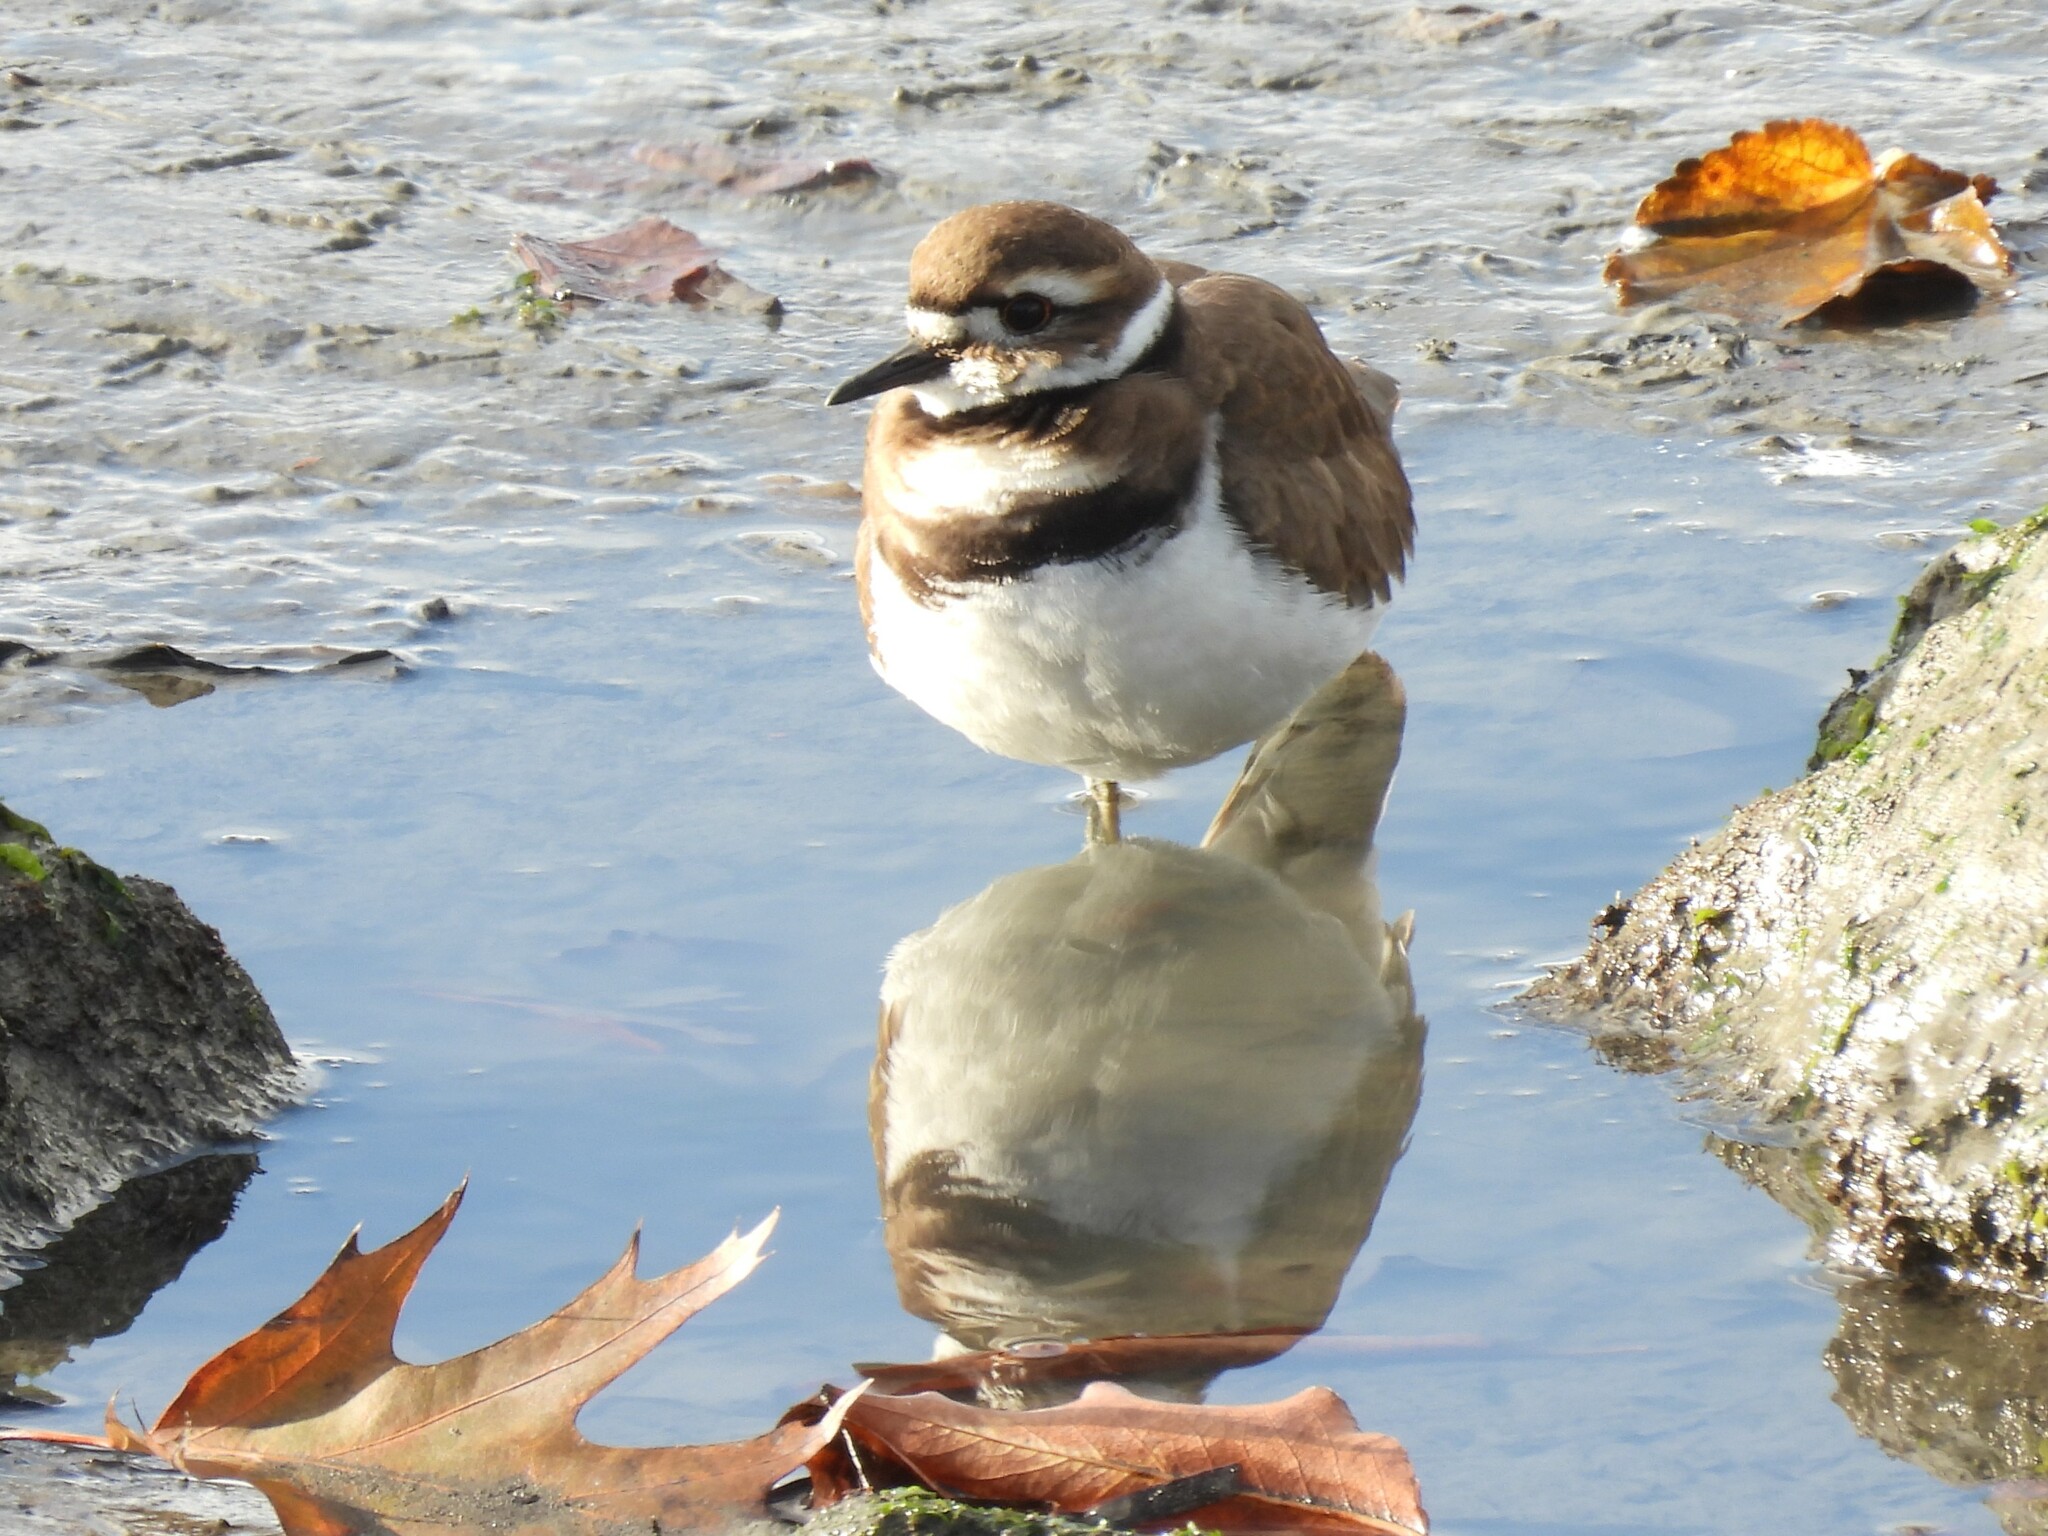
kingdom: Animalia
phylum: Chordata
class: Aves
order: Charadriiformes
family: Charadriidae
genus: Charadrius
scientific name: Charadrius vociferus
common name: Killdeer
